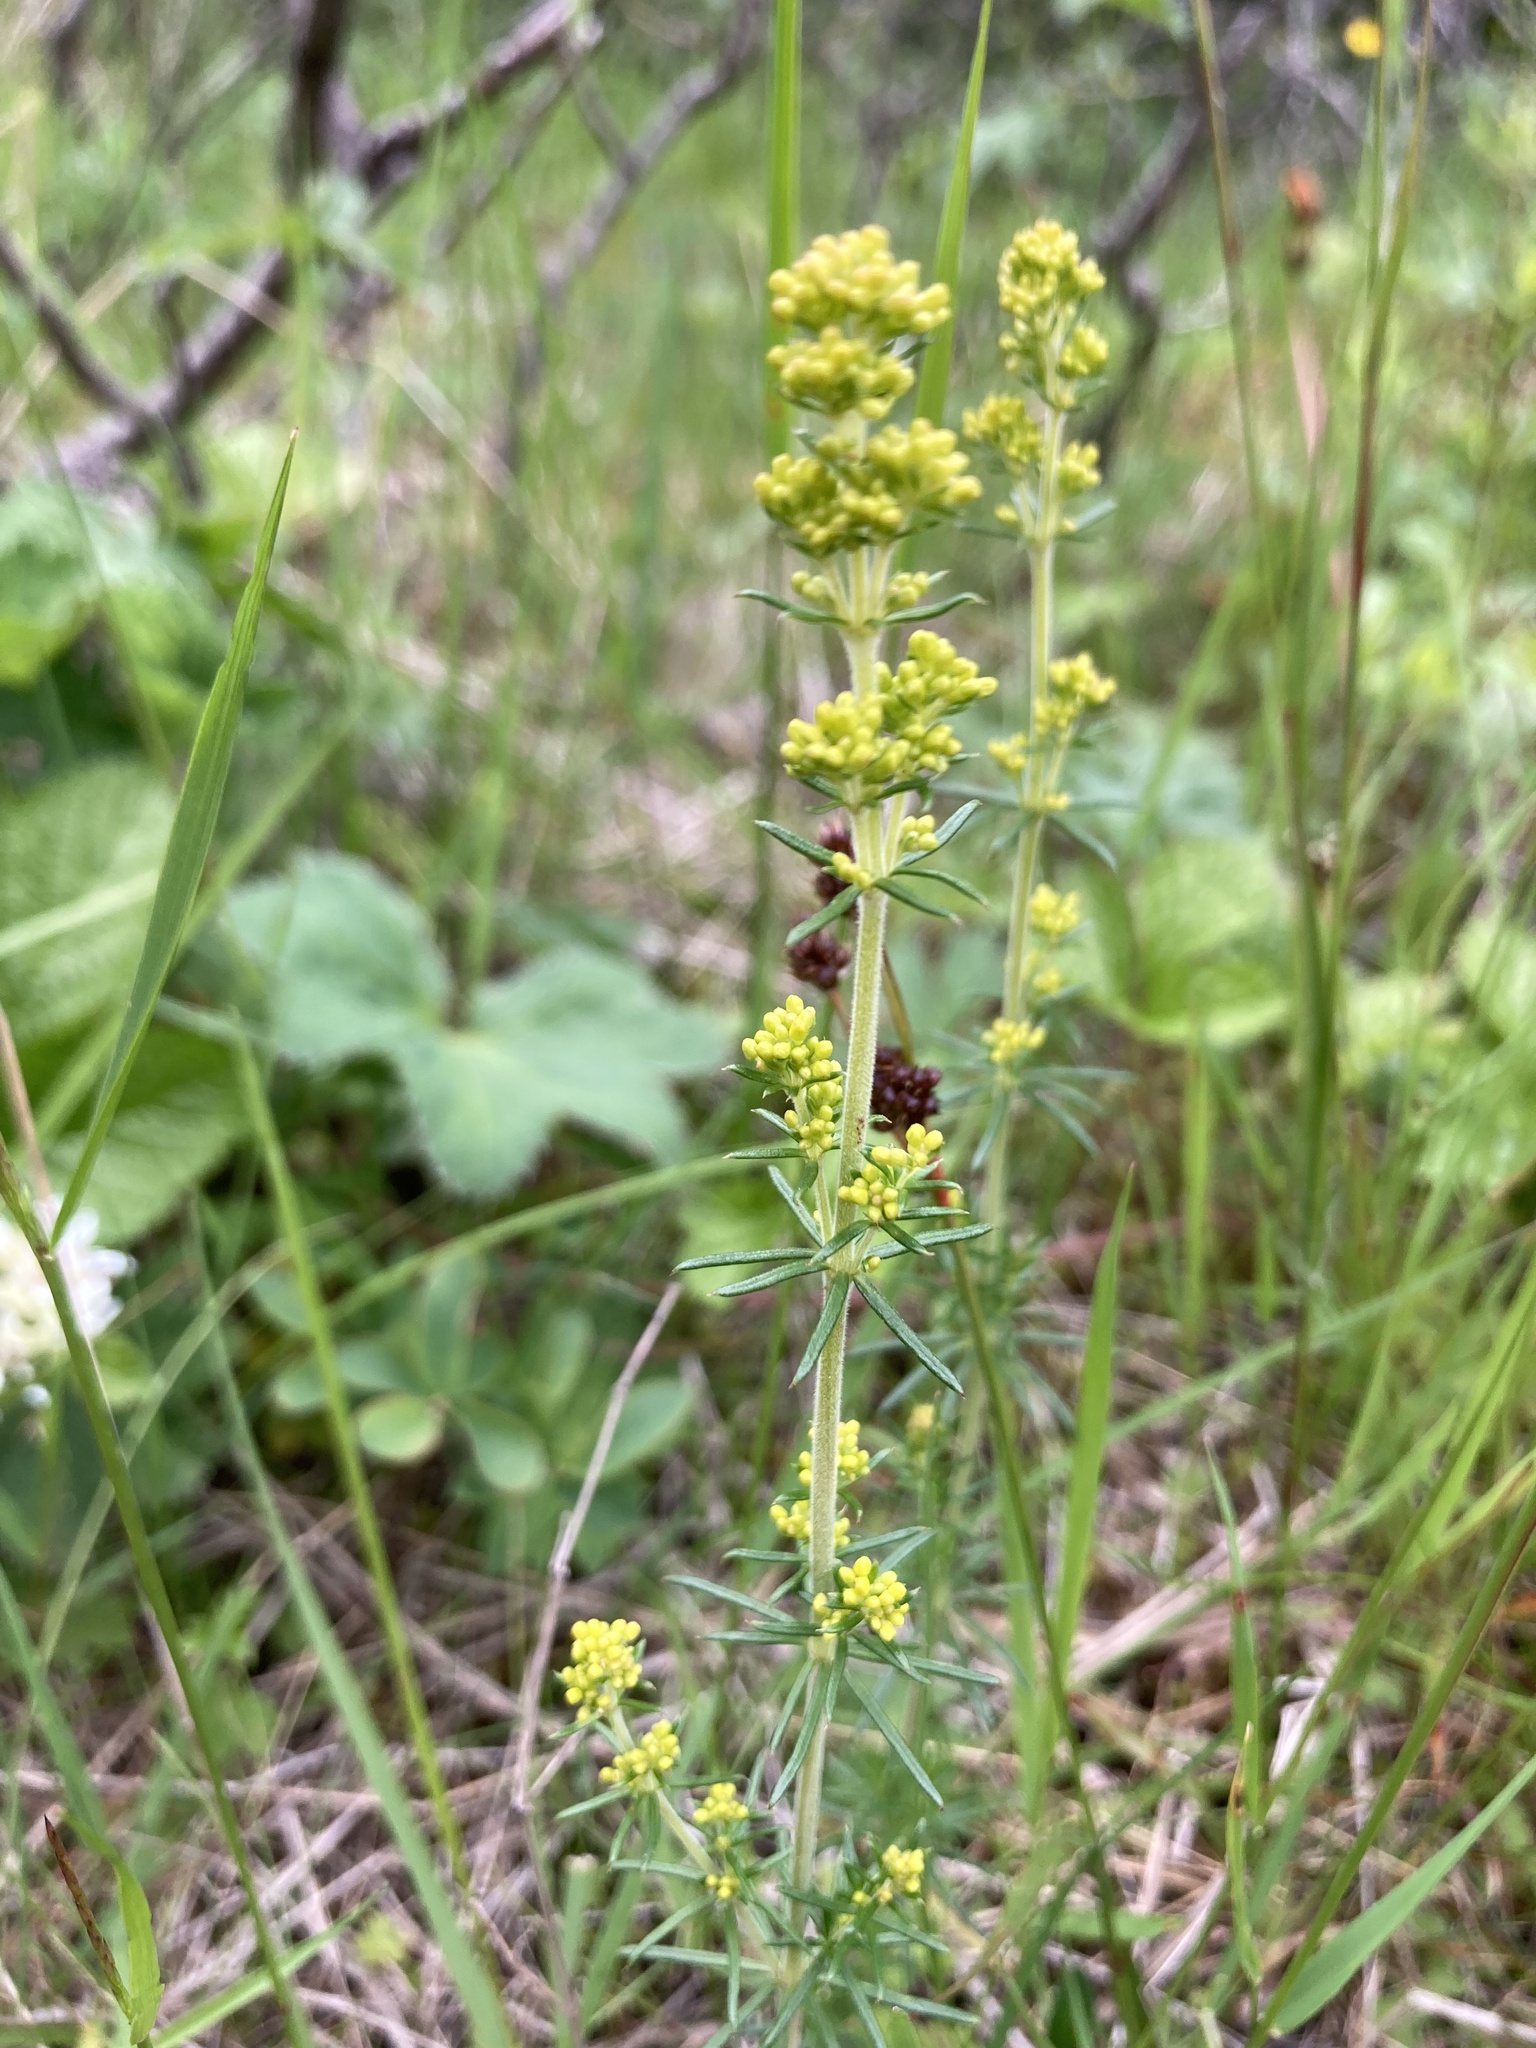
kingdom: Plantae
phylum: Tracheophyta
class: Magnoliopsida
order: Gentianales
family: Rubiaceae
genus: Galium
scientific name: Galium verum
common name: Lady's bedstraw
